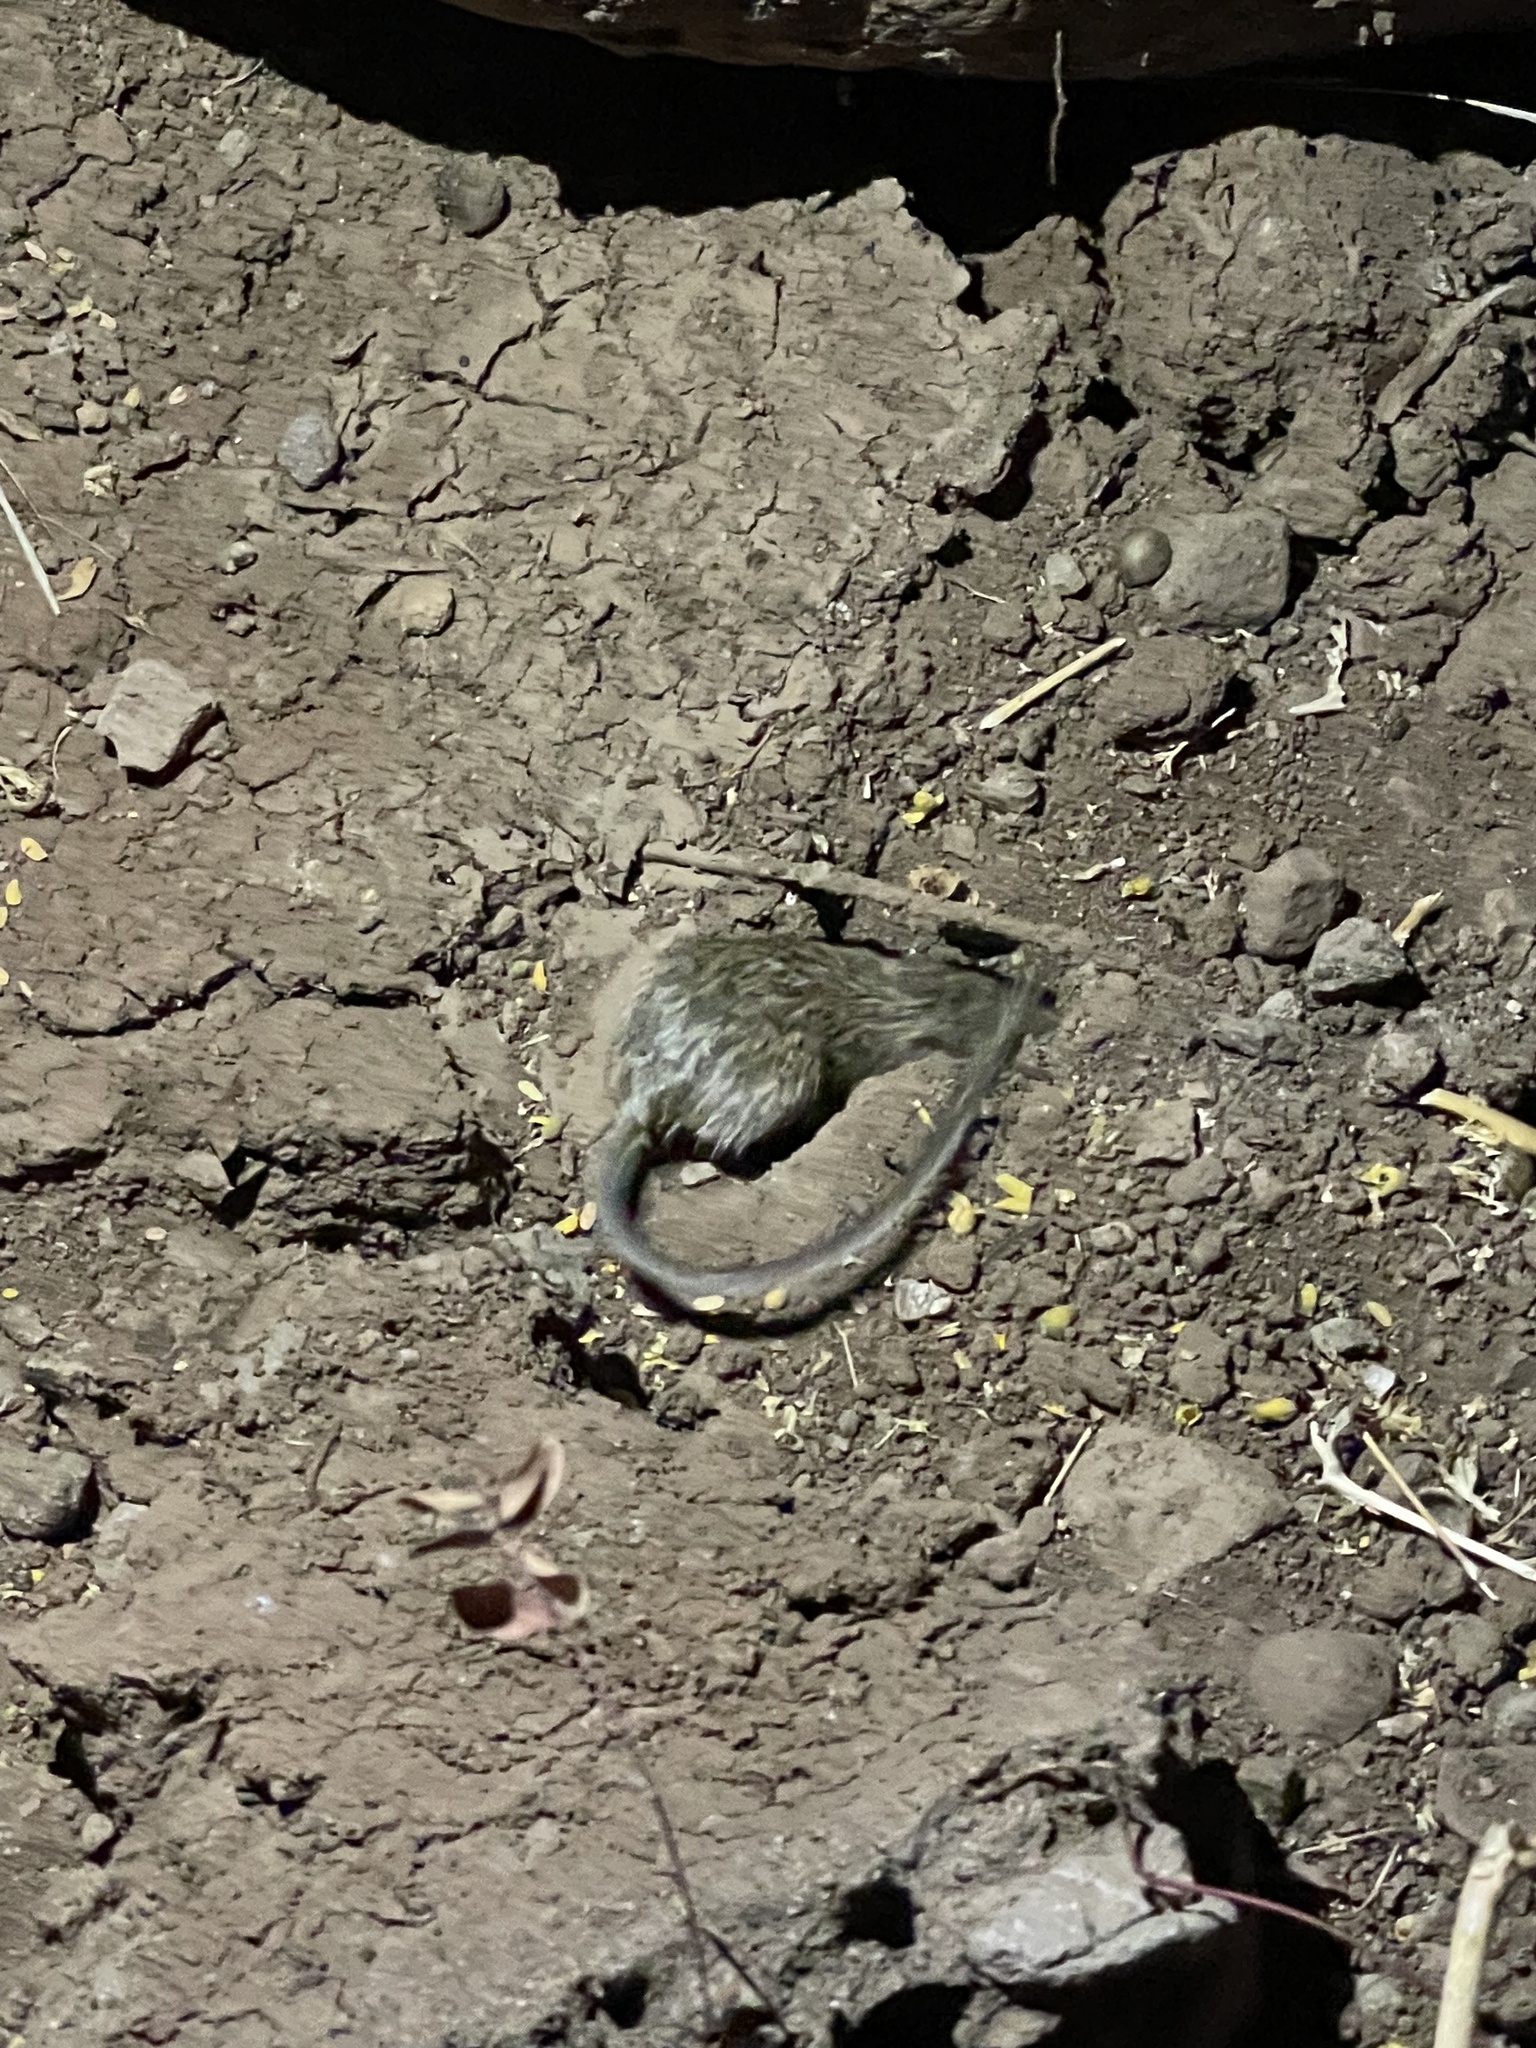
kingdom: Animalia
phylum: Chordata
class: Mammalia
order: Rodentia
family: Heteromyidae
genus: Chaetodipus
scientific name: Chaetodipus spinatus
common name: Spiny pocket mouse
